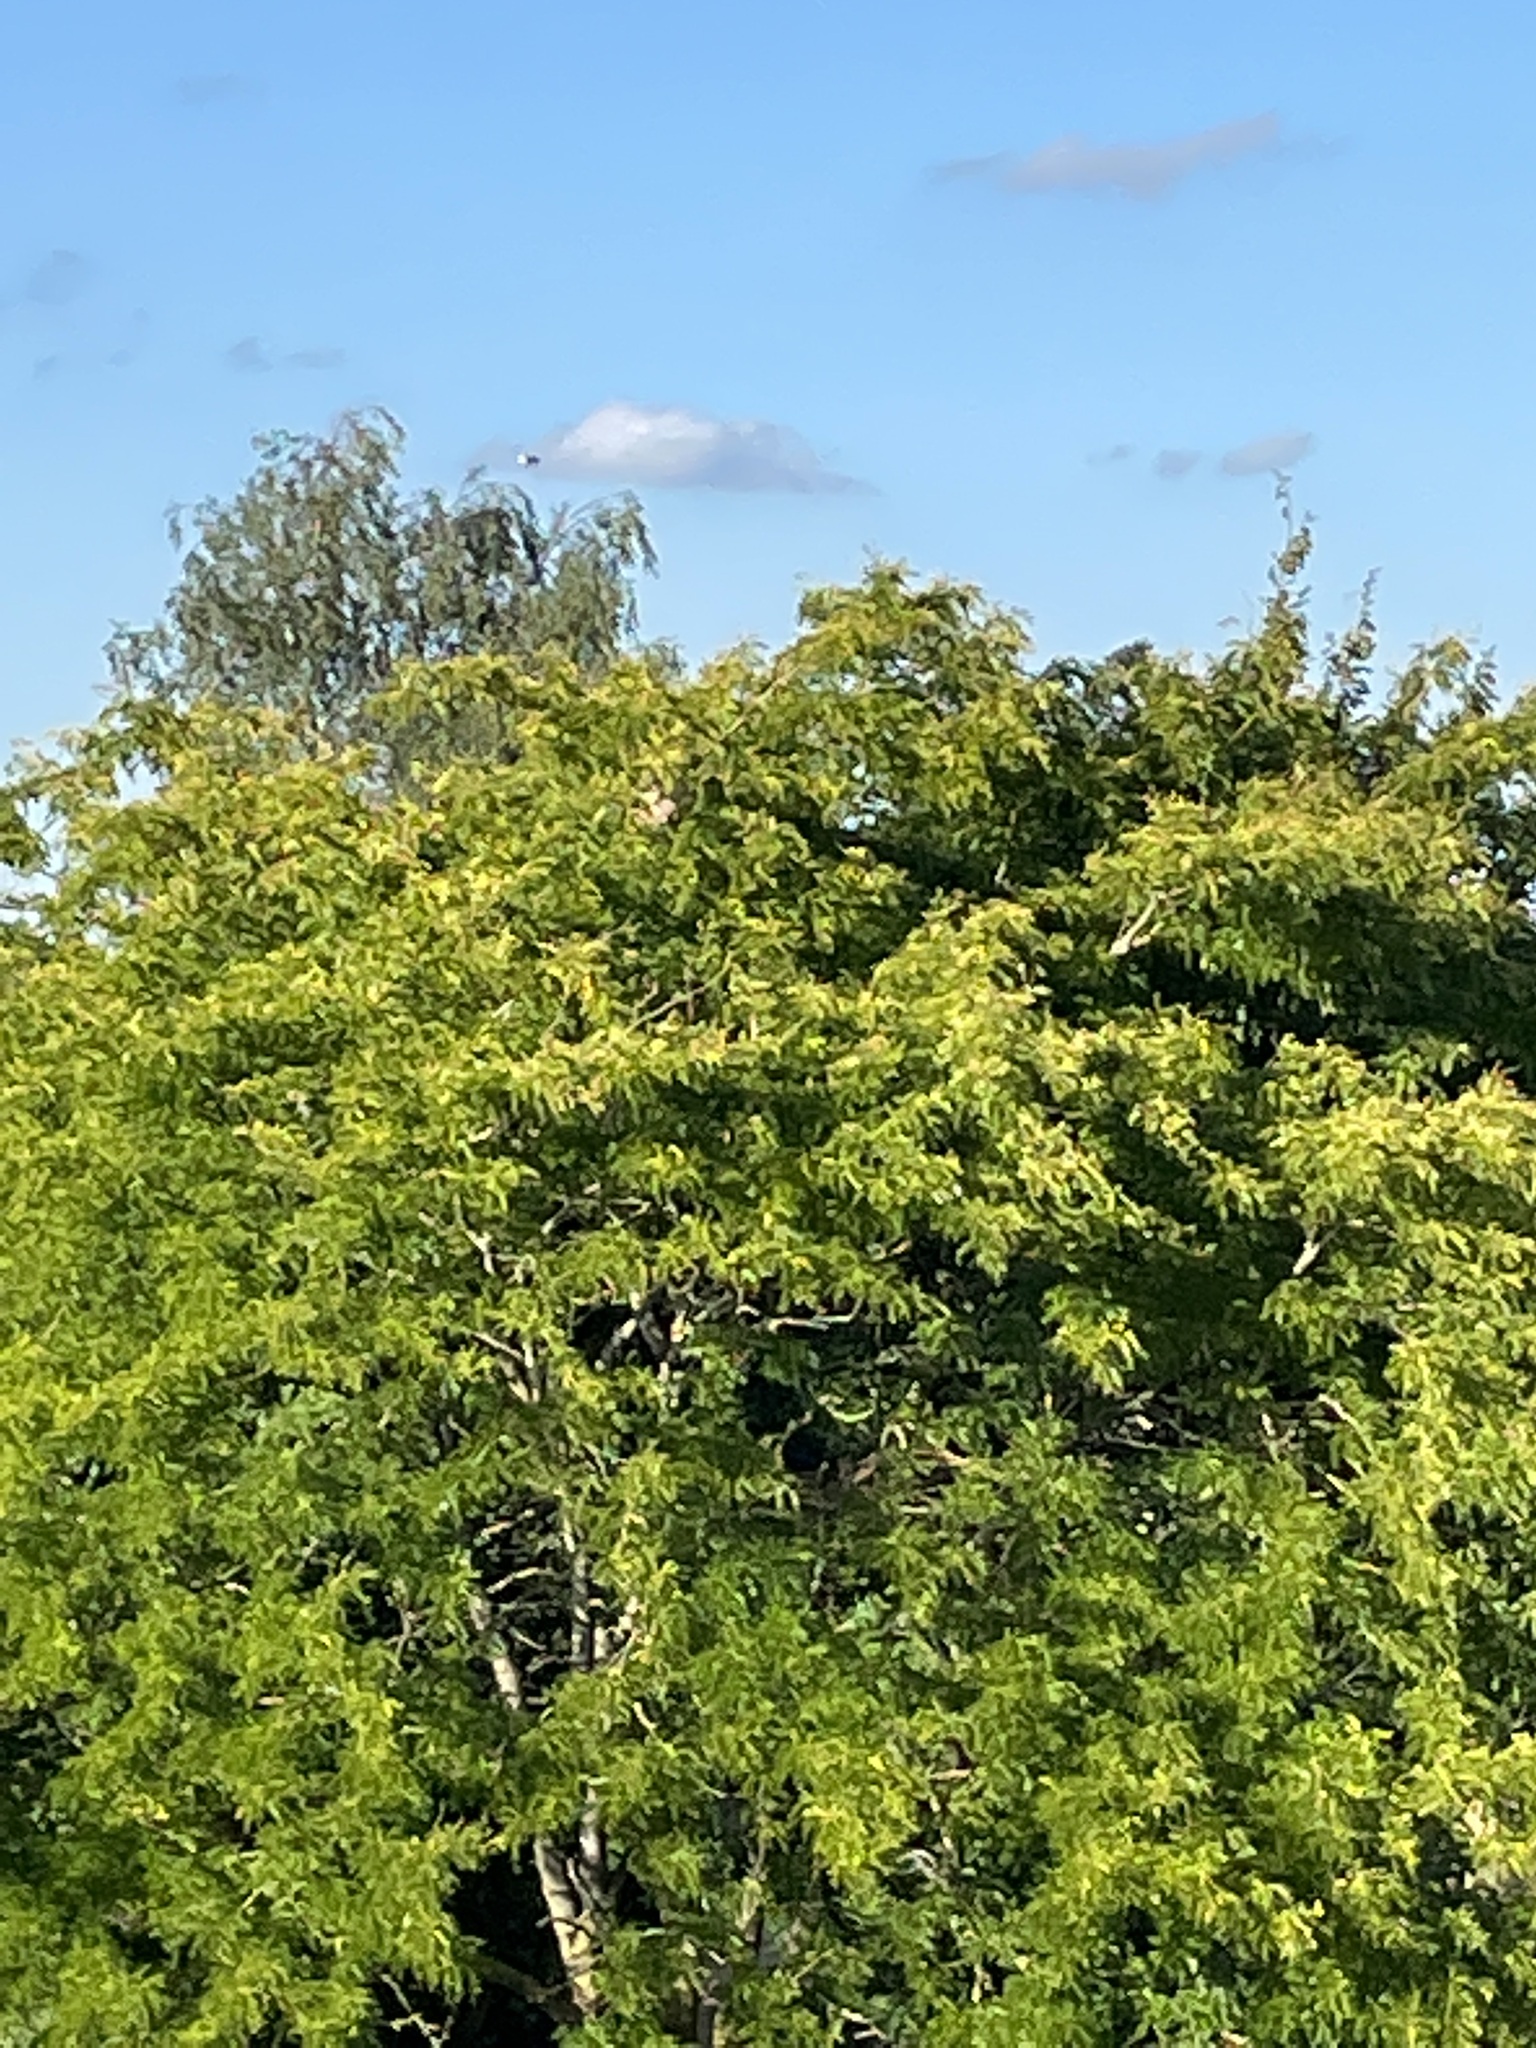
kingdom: Animalia
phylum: Arthropoda
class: Insecta
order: Hymenoptera
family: Vespidae
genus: Vespa
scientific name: Vespa velutina
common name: Asian hornet
